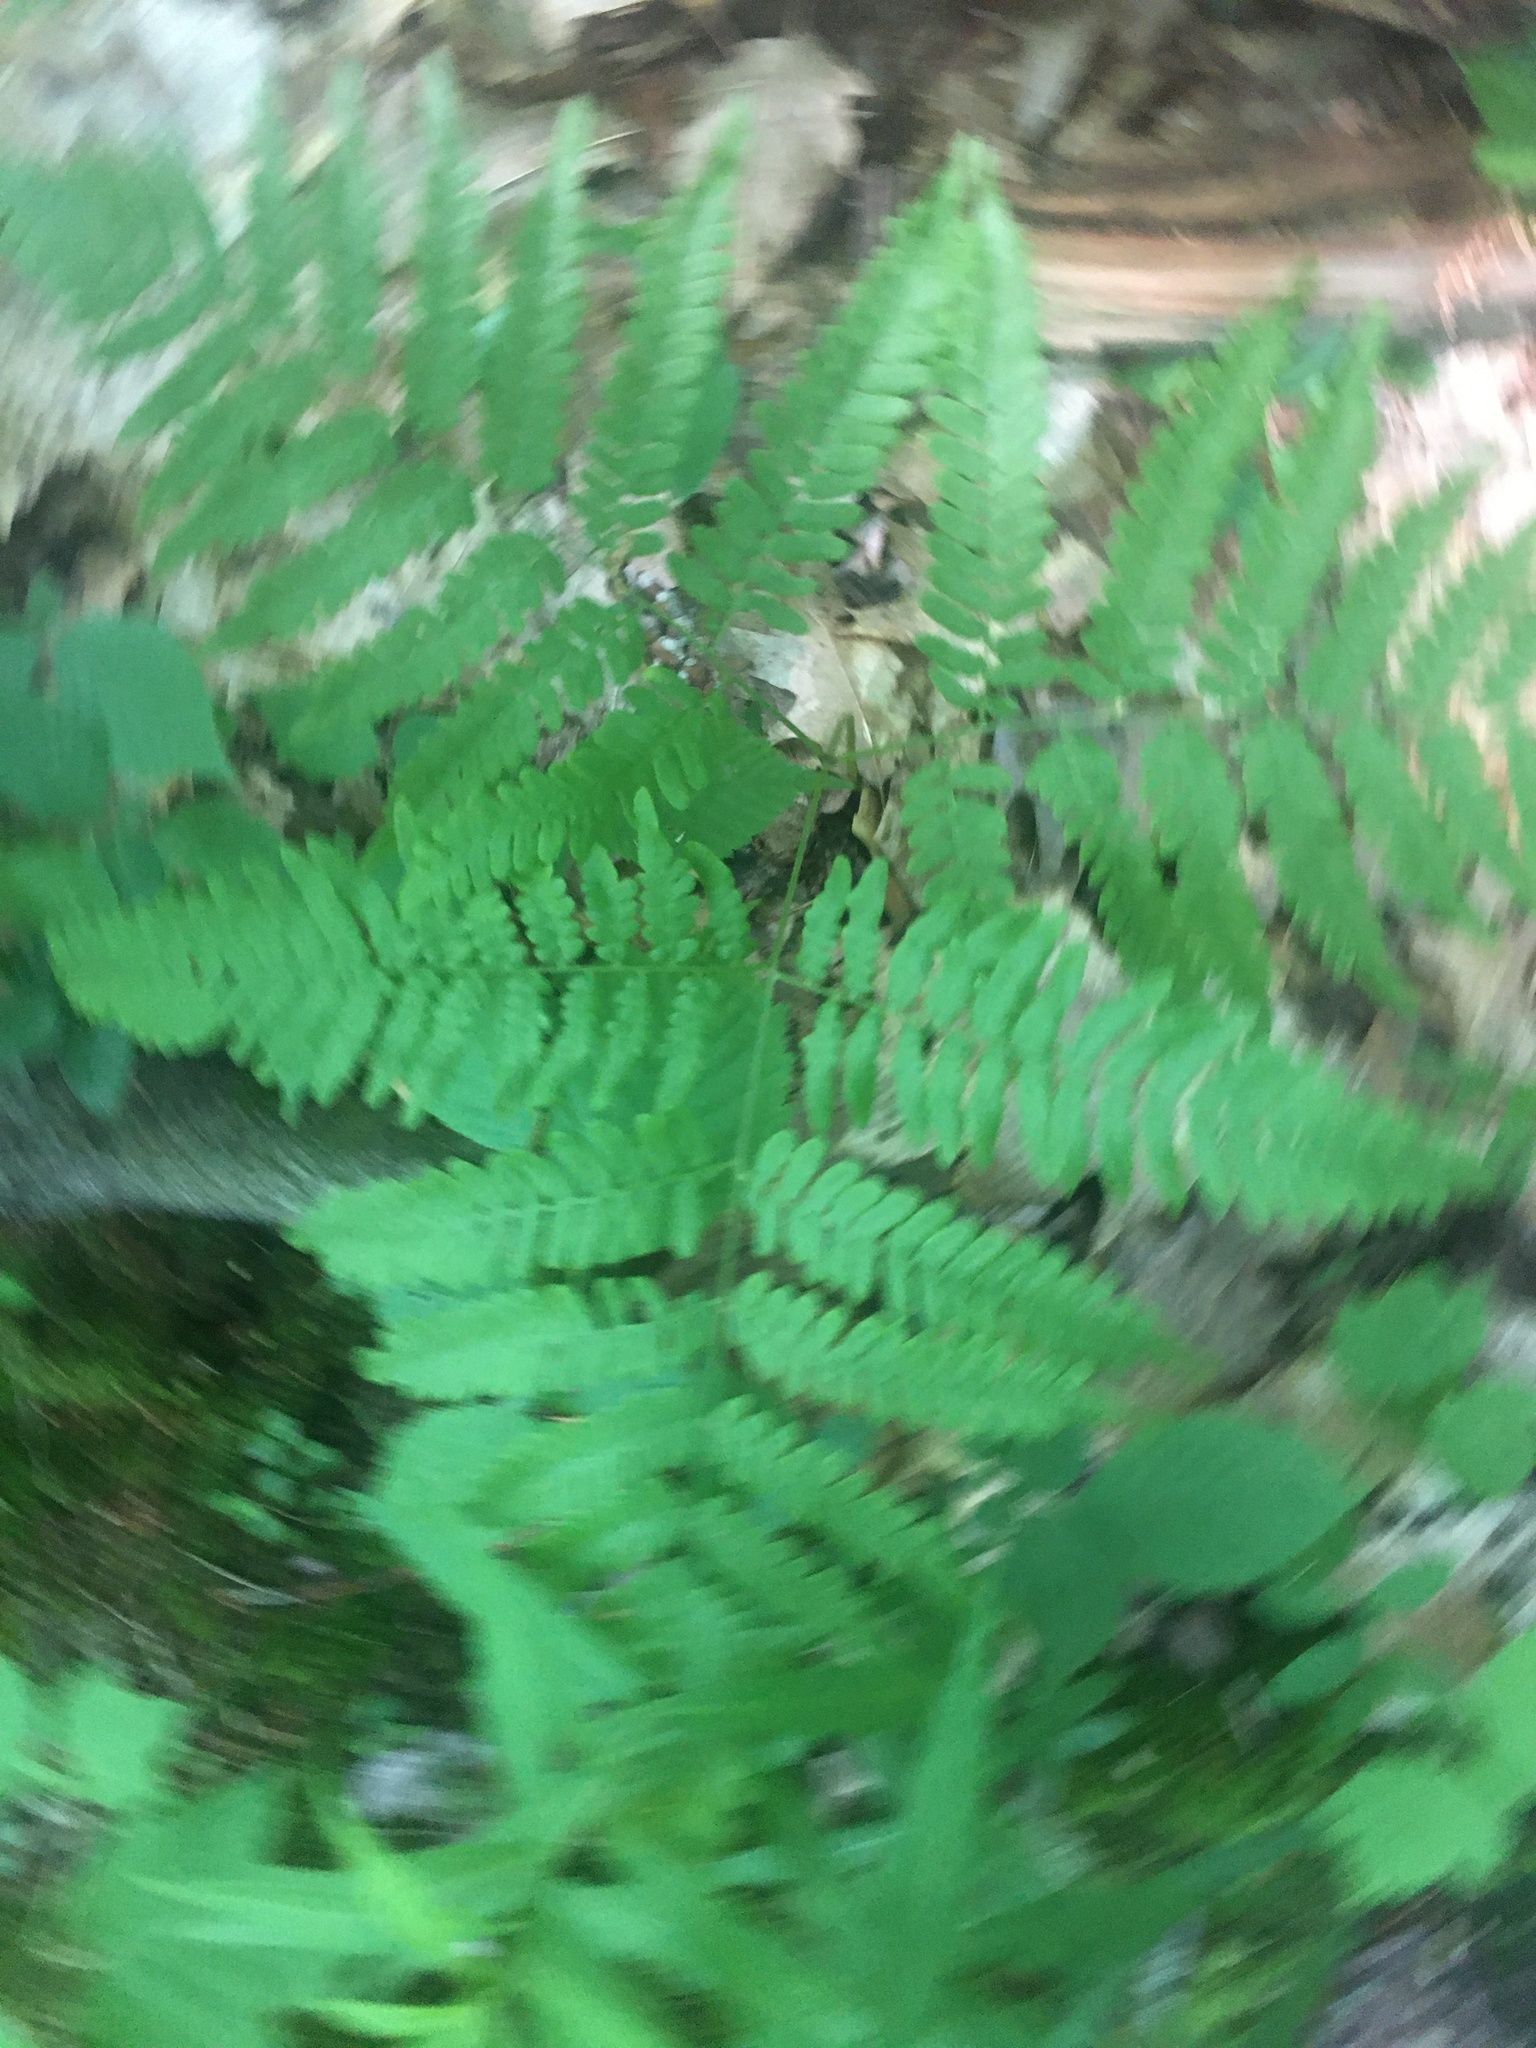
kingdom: Plantae
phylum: Tracheophyta
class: Polypodiopsida
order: Polypodiales
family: Dennstaedtiaceae
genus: Pteridium
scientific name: Pteridium aquilinum
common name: Bracken
